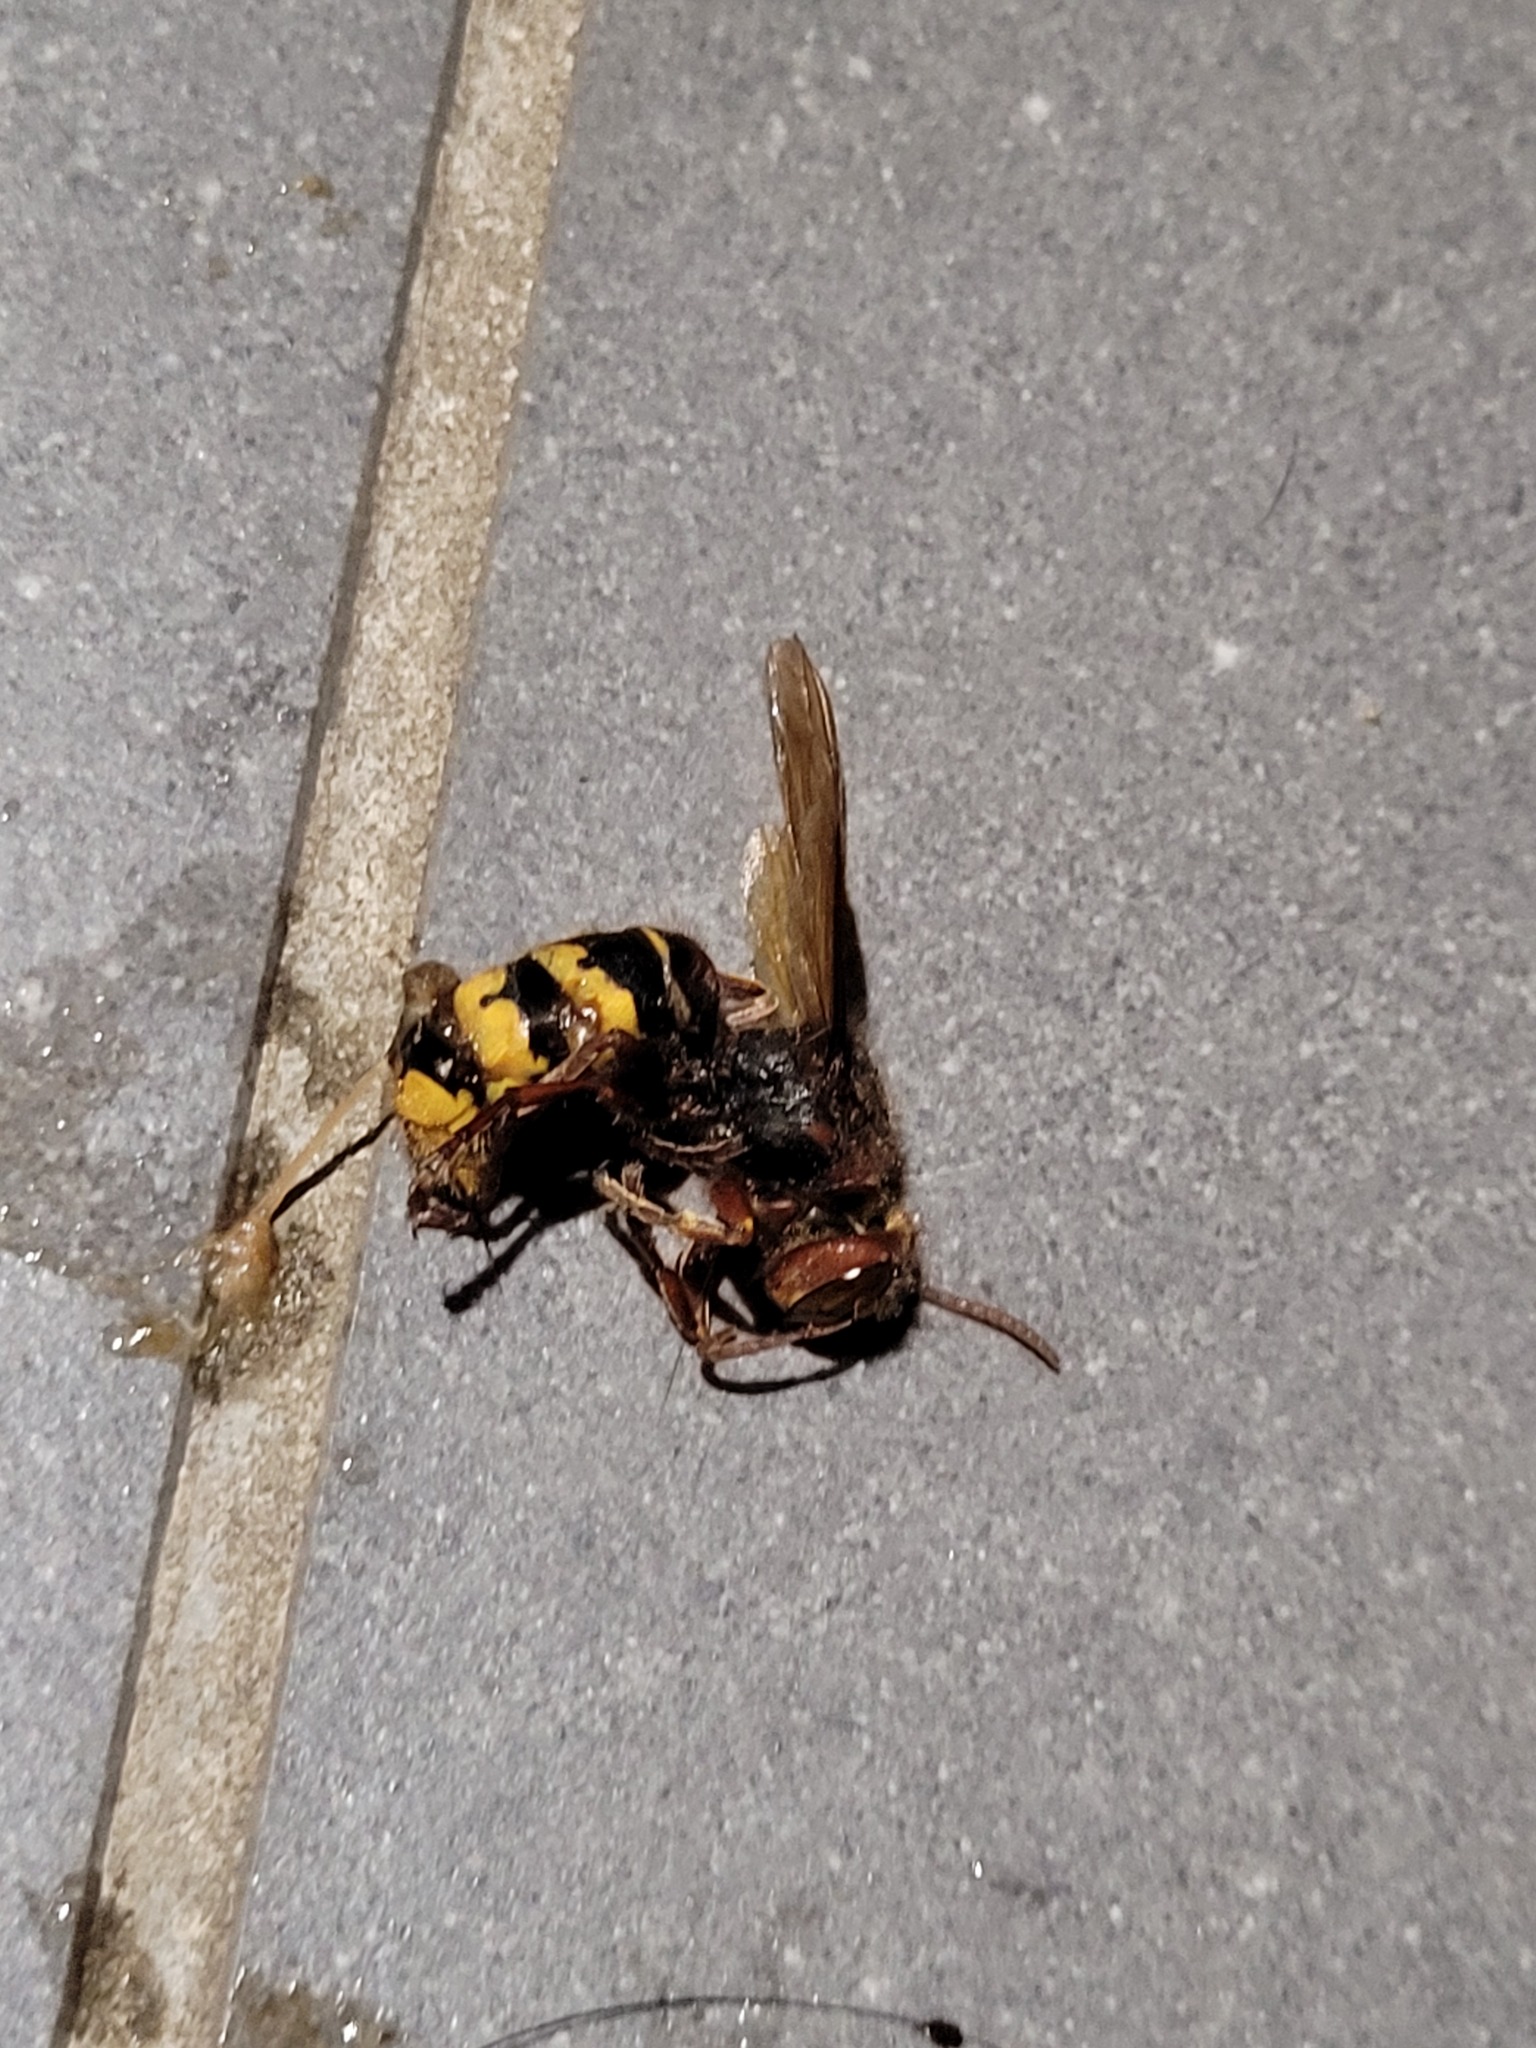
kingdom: Animalia
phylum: Arthropoda
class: Insecta
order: Hymenoptera
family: Vespidae
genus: Vespa
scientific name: Vespa crabro
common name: Hornet
